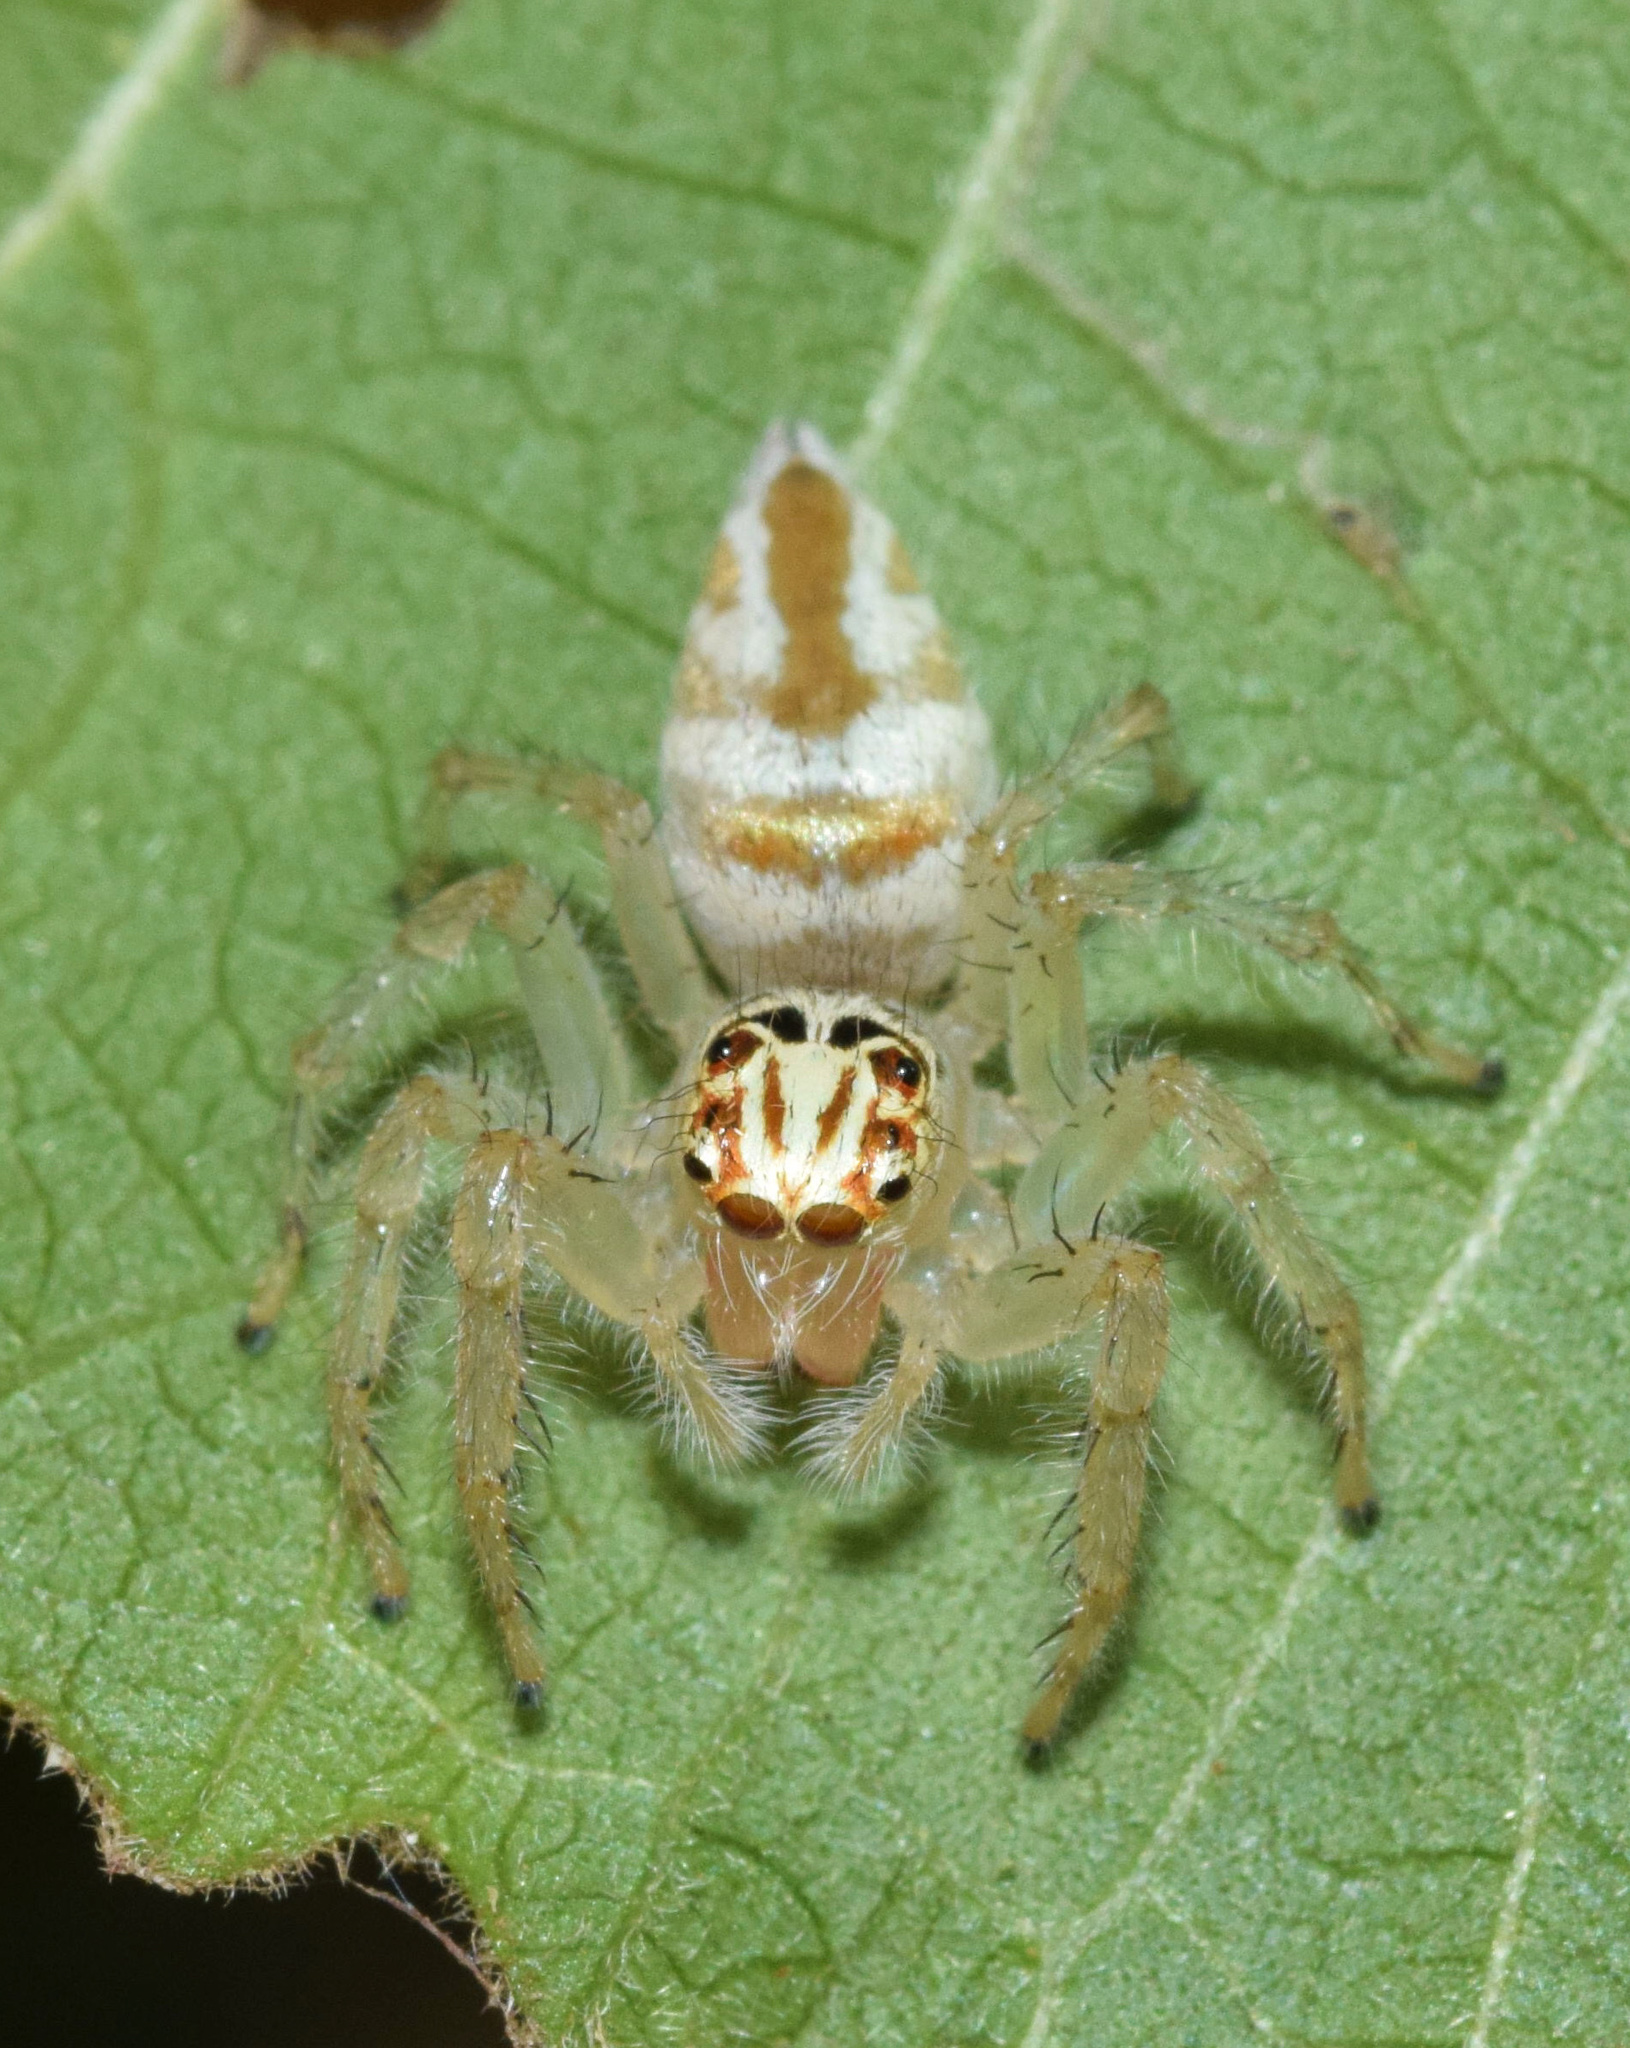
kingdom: Animalia
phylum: Arthropoda
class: Arachnida
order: Araneae
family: Salticidae
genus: Brancus
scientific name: Brancus mustelus
